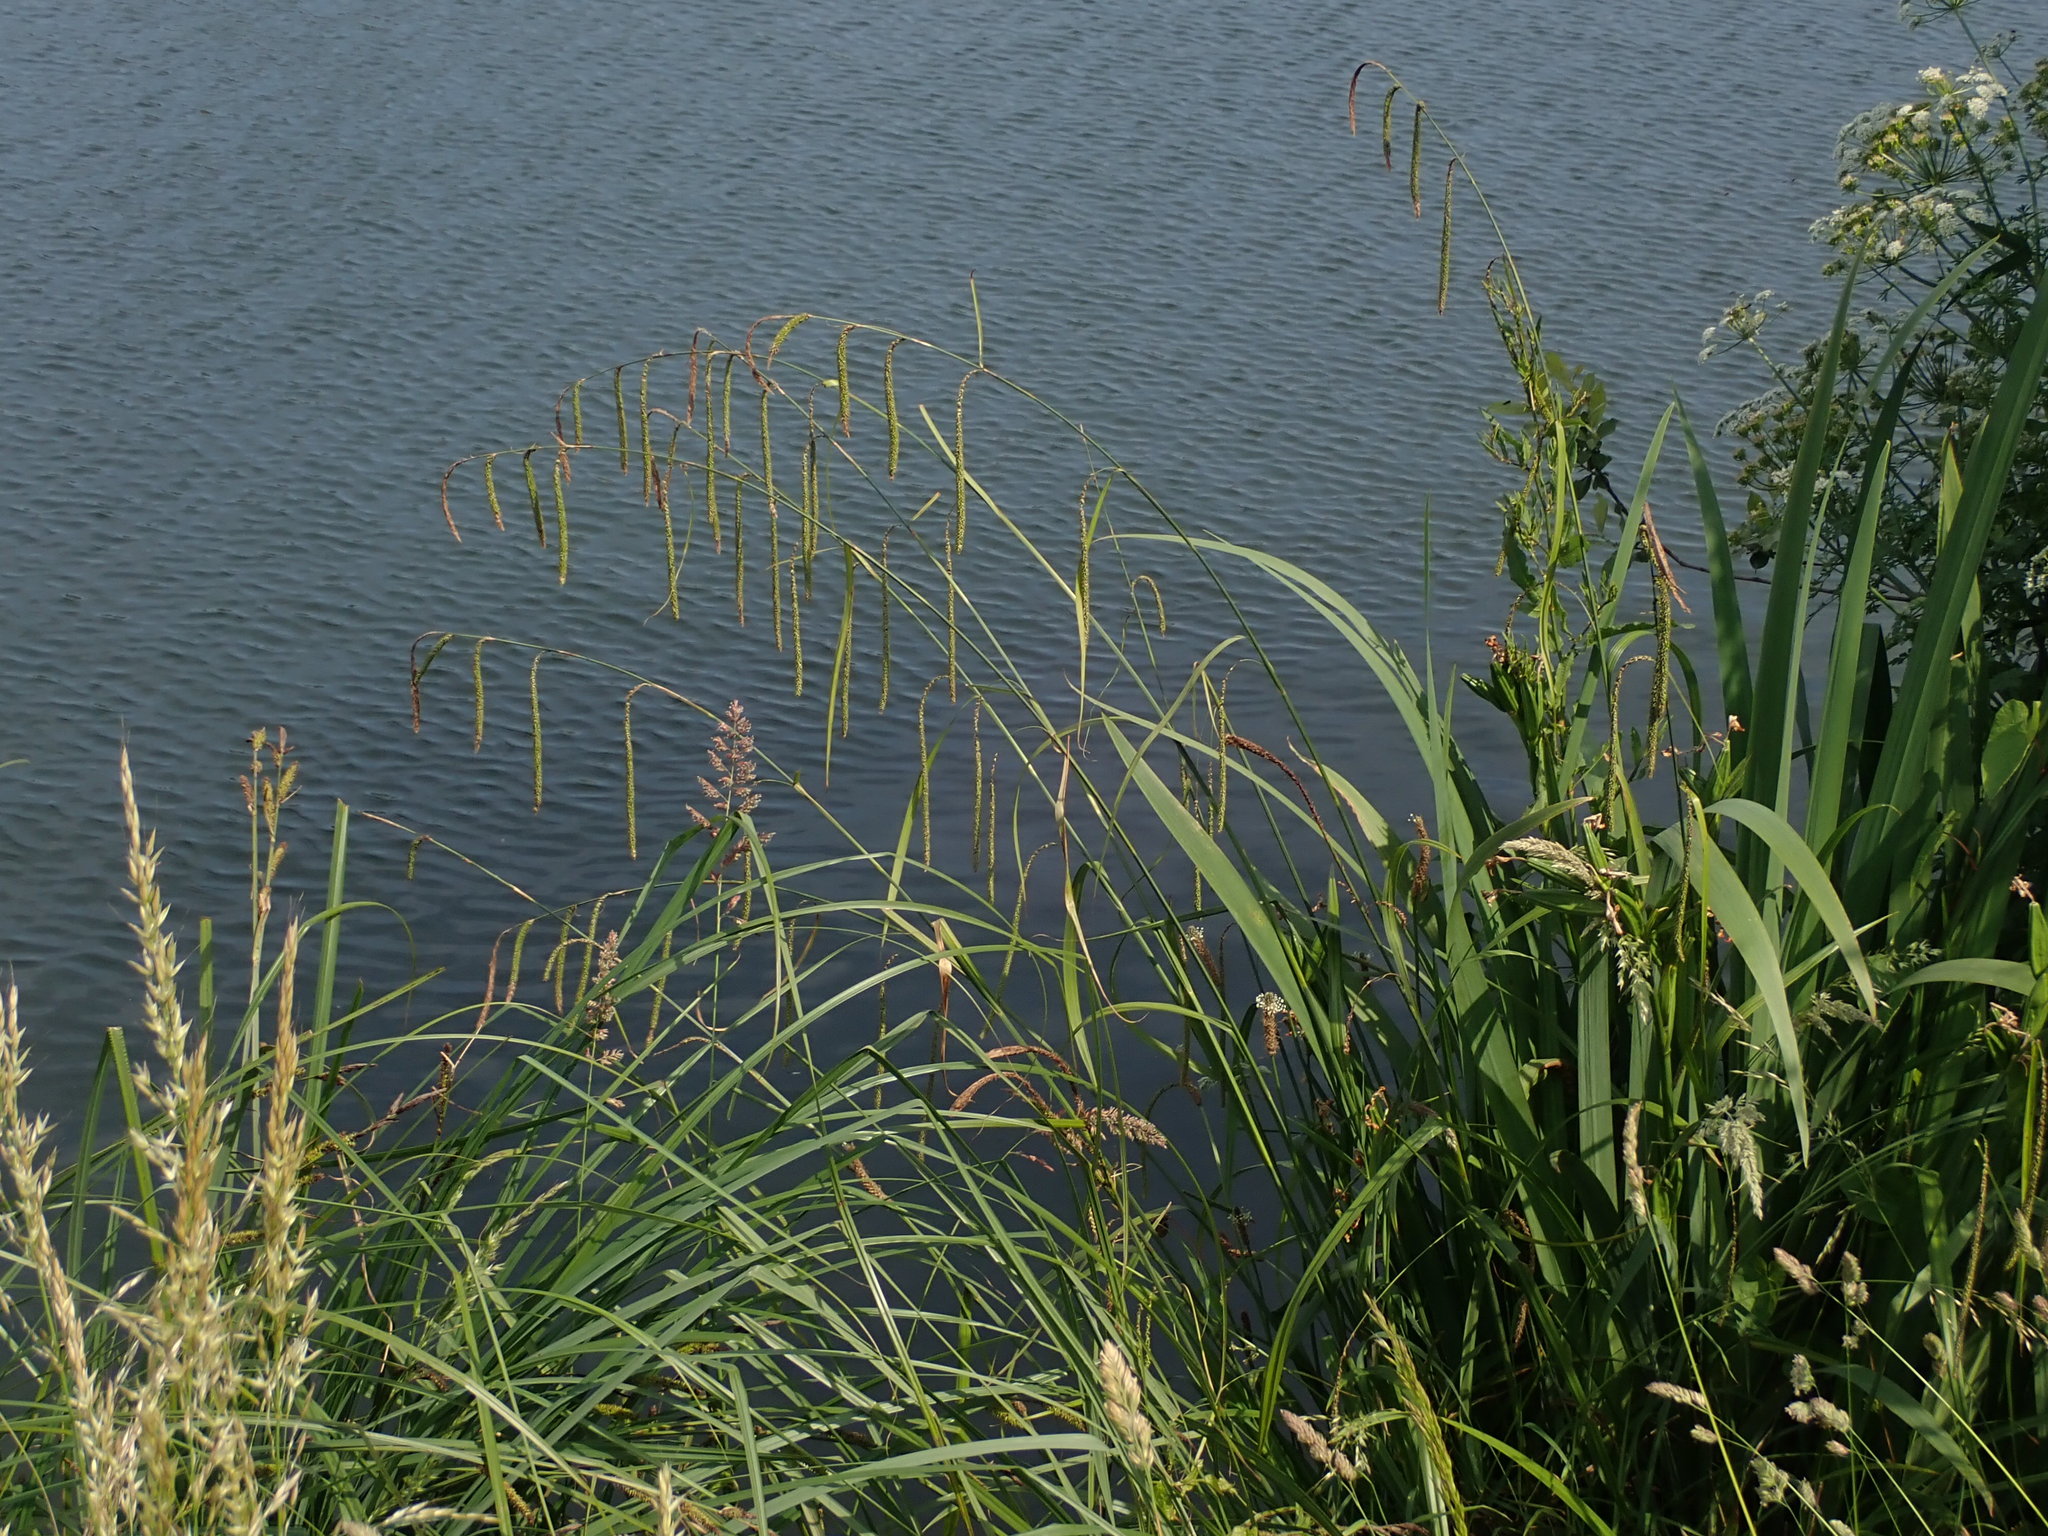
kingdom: Plantae
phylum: Tracheophyta
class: Liliopsida
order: Poales
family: Cyperaceae
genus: Carex
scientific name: Carex pendula
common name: Pendulous sedge
